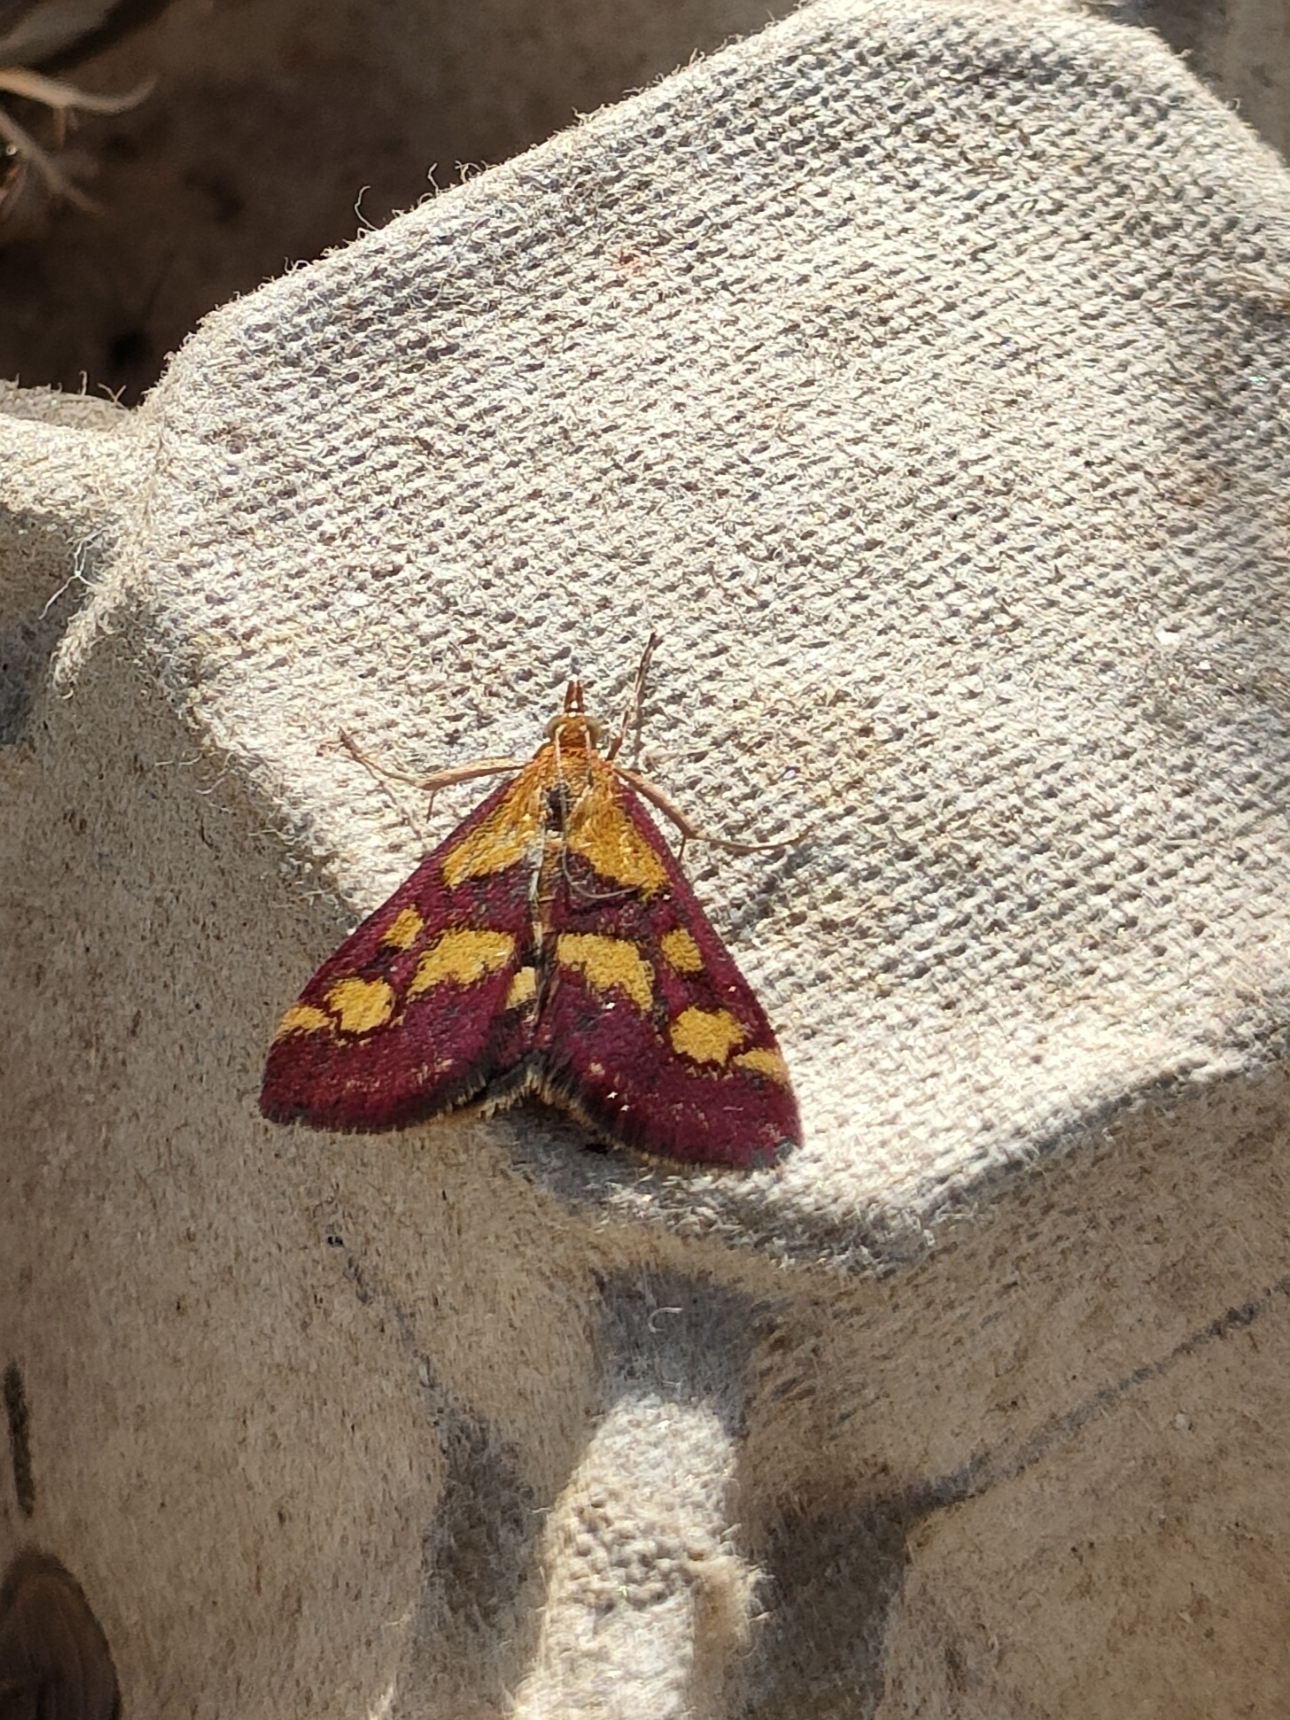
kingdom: Animalia
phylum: Arthropoda
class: Insecta
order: Lepidoptera
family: Crambidae
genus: Pyrausta
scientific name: Pyrausta purpuralis
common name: Common purple & gold
